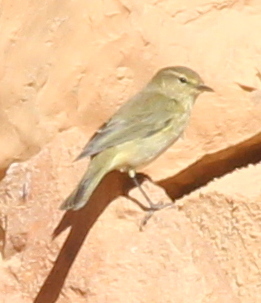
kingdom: Animalia
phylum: Chordata
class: Aves
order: Passeriformes
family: Phylloscopidae
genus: Phylloscopus
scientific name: Phylloscopus collybita
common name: Common chiffchaff
